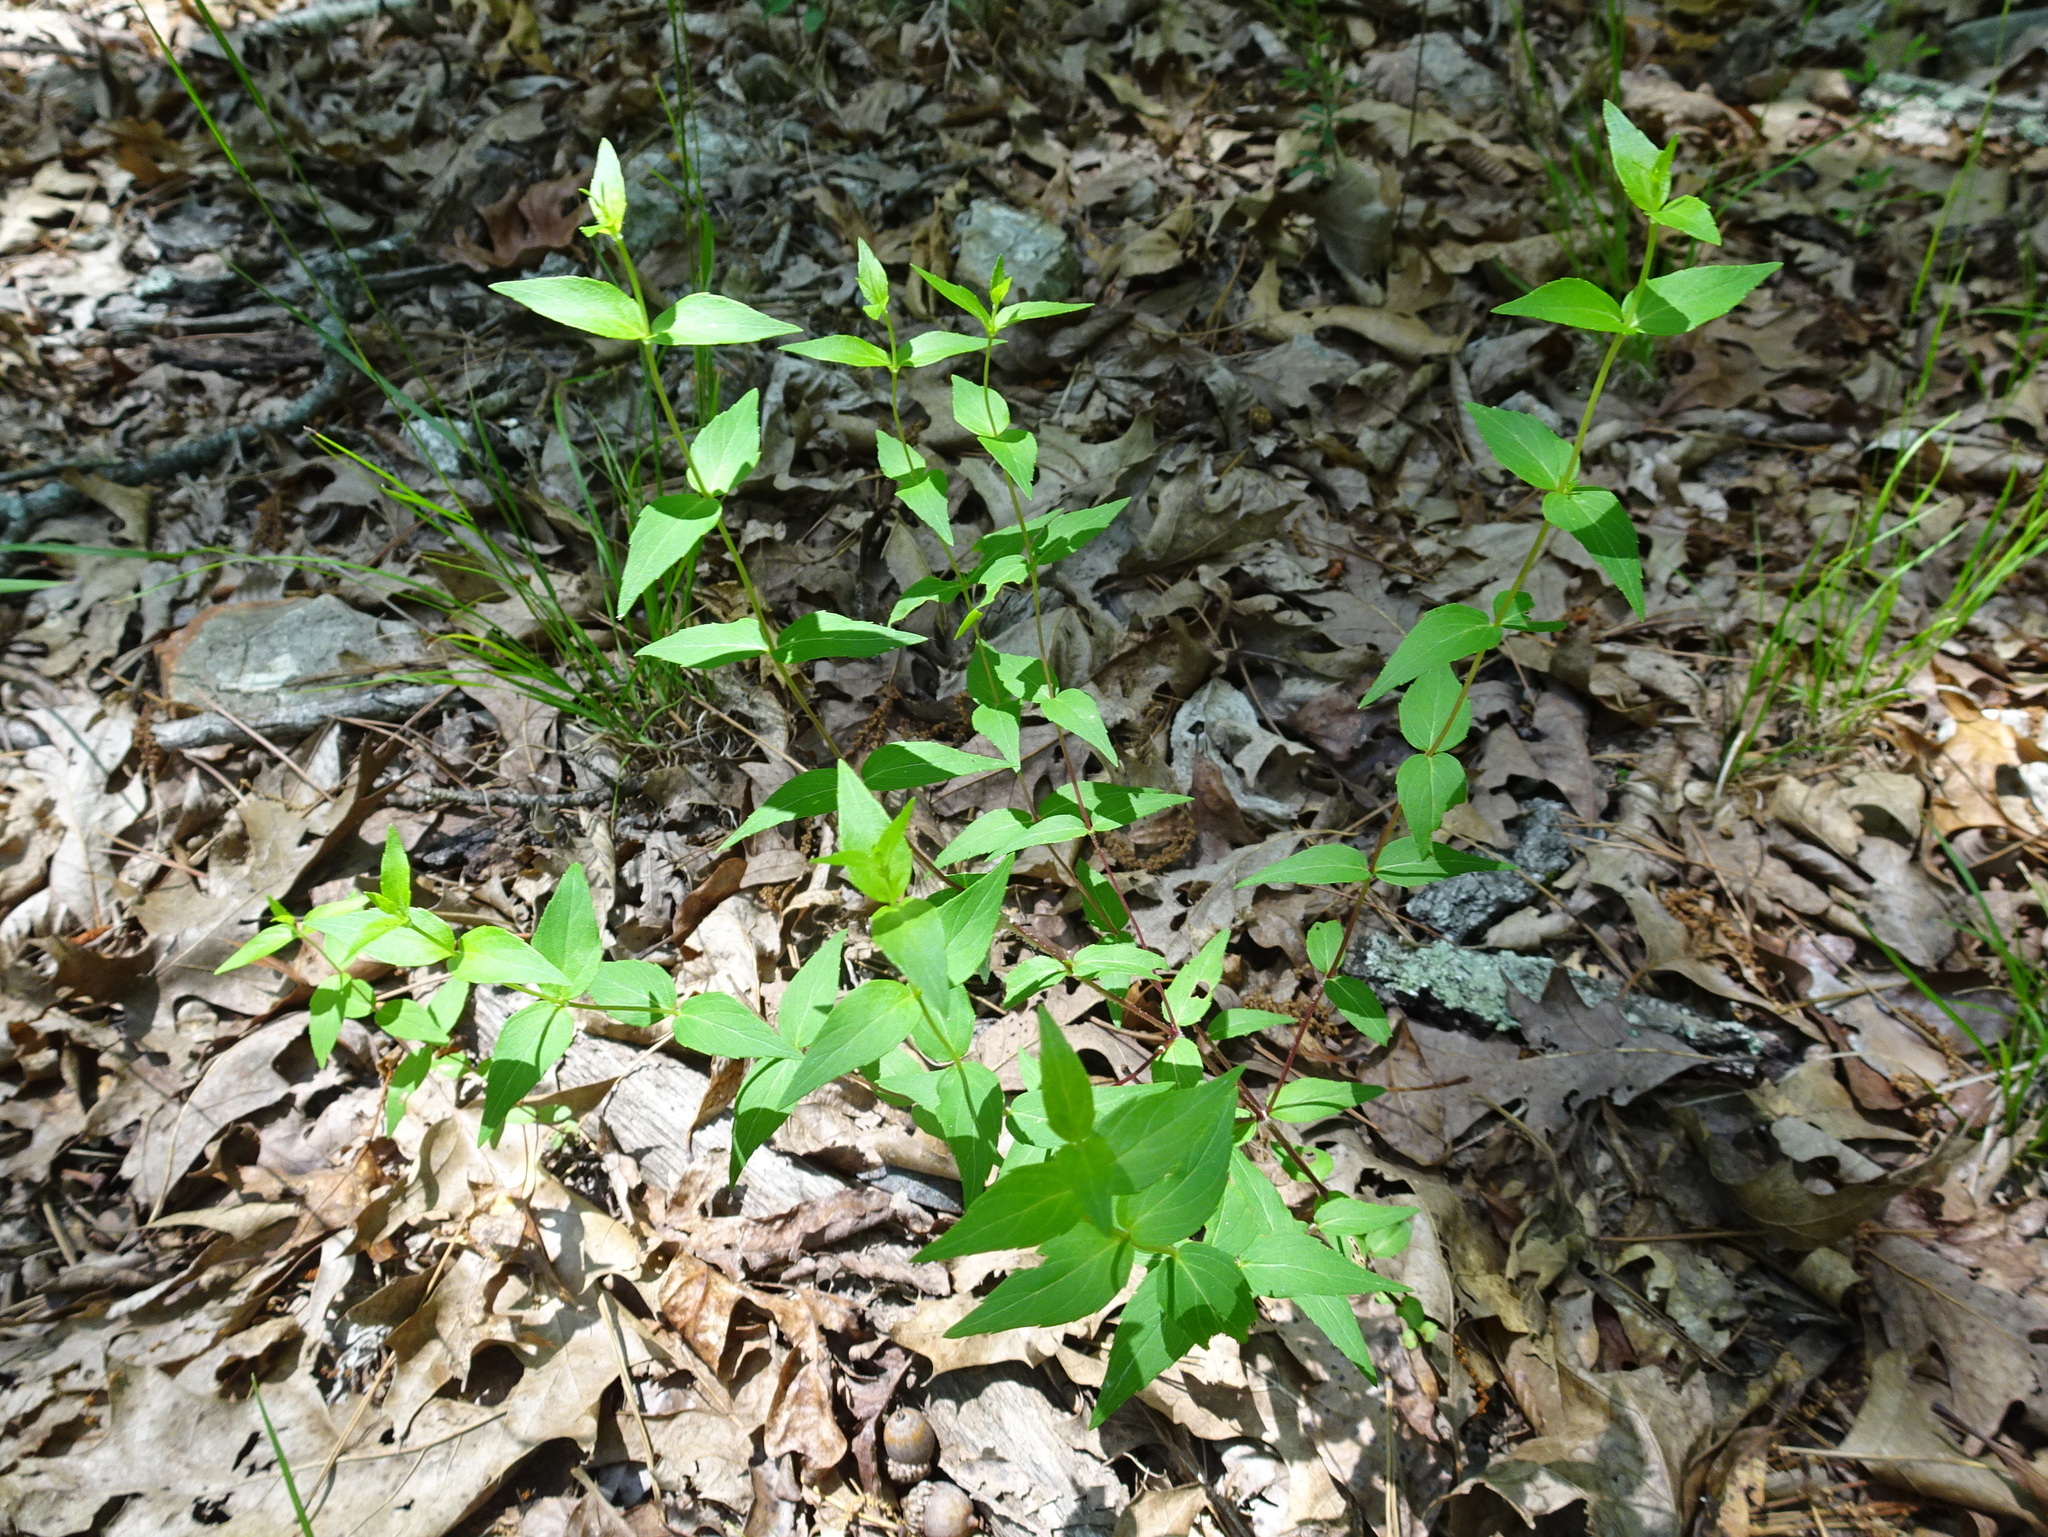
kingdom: Plantae
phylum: Tracheophyta
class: Magnoliopsida
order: Lamiales
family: Lamiaceae
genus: Cunila
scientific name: Cunila origanoides
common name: American dittany
